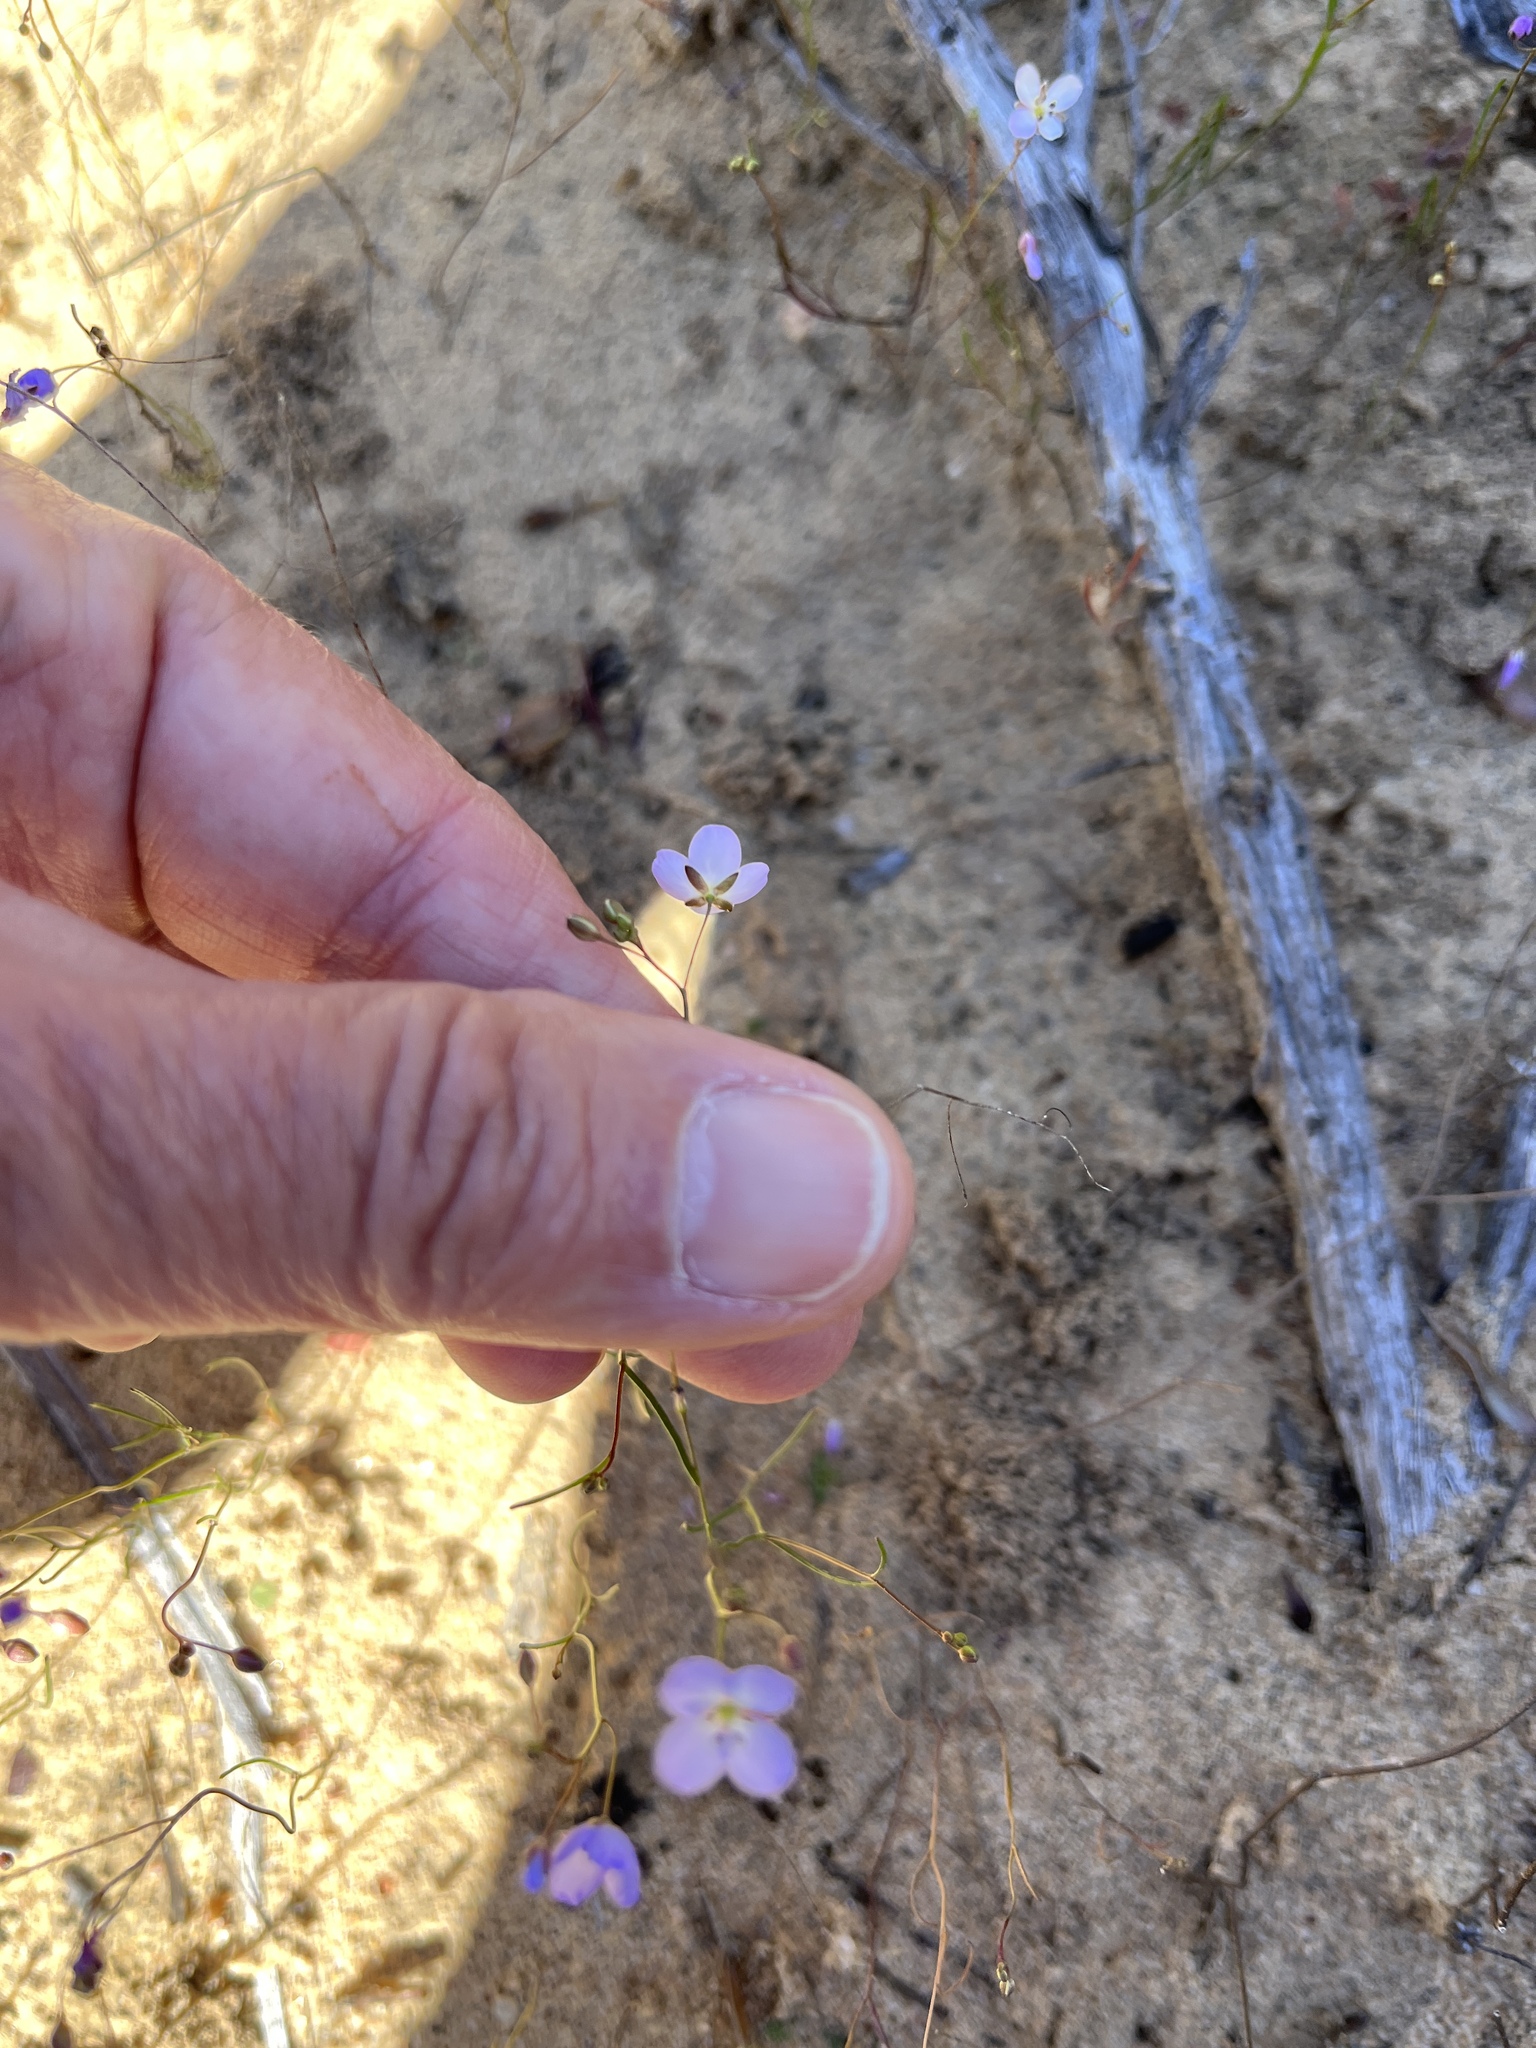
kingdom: Plantae
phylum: Tracheophyta
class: Magnoliopsida
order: Brassicales
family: Brassicaceae
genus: Heliophila
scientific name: Heliophila pinnata
